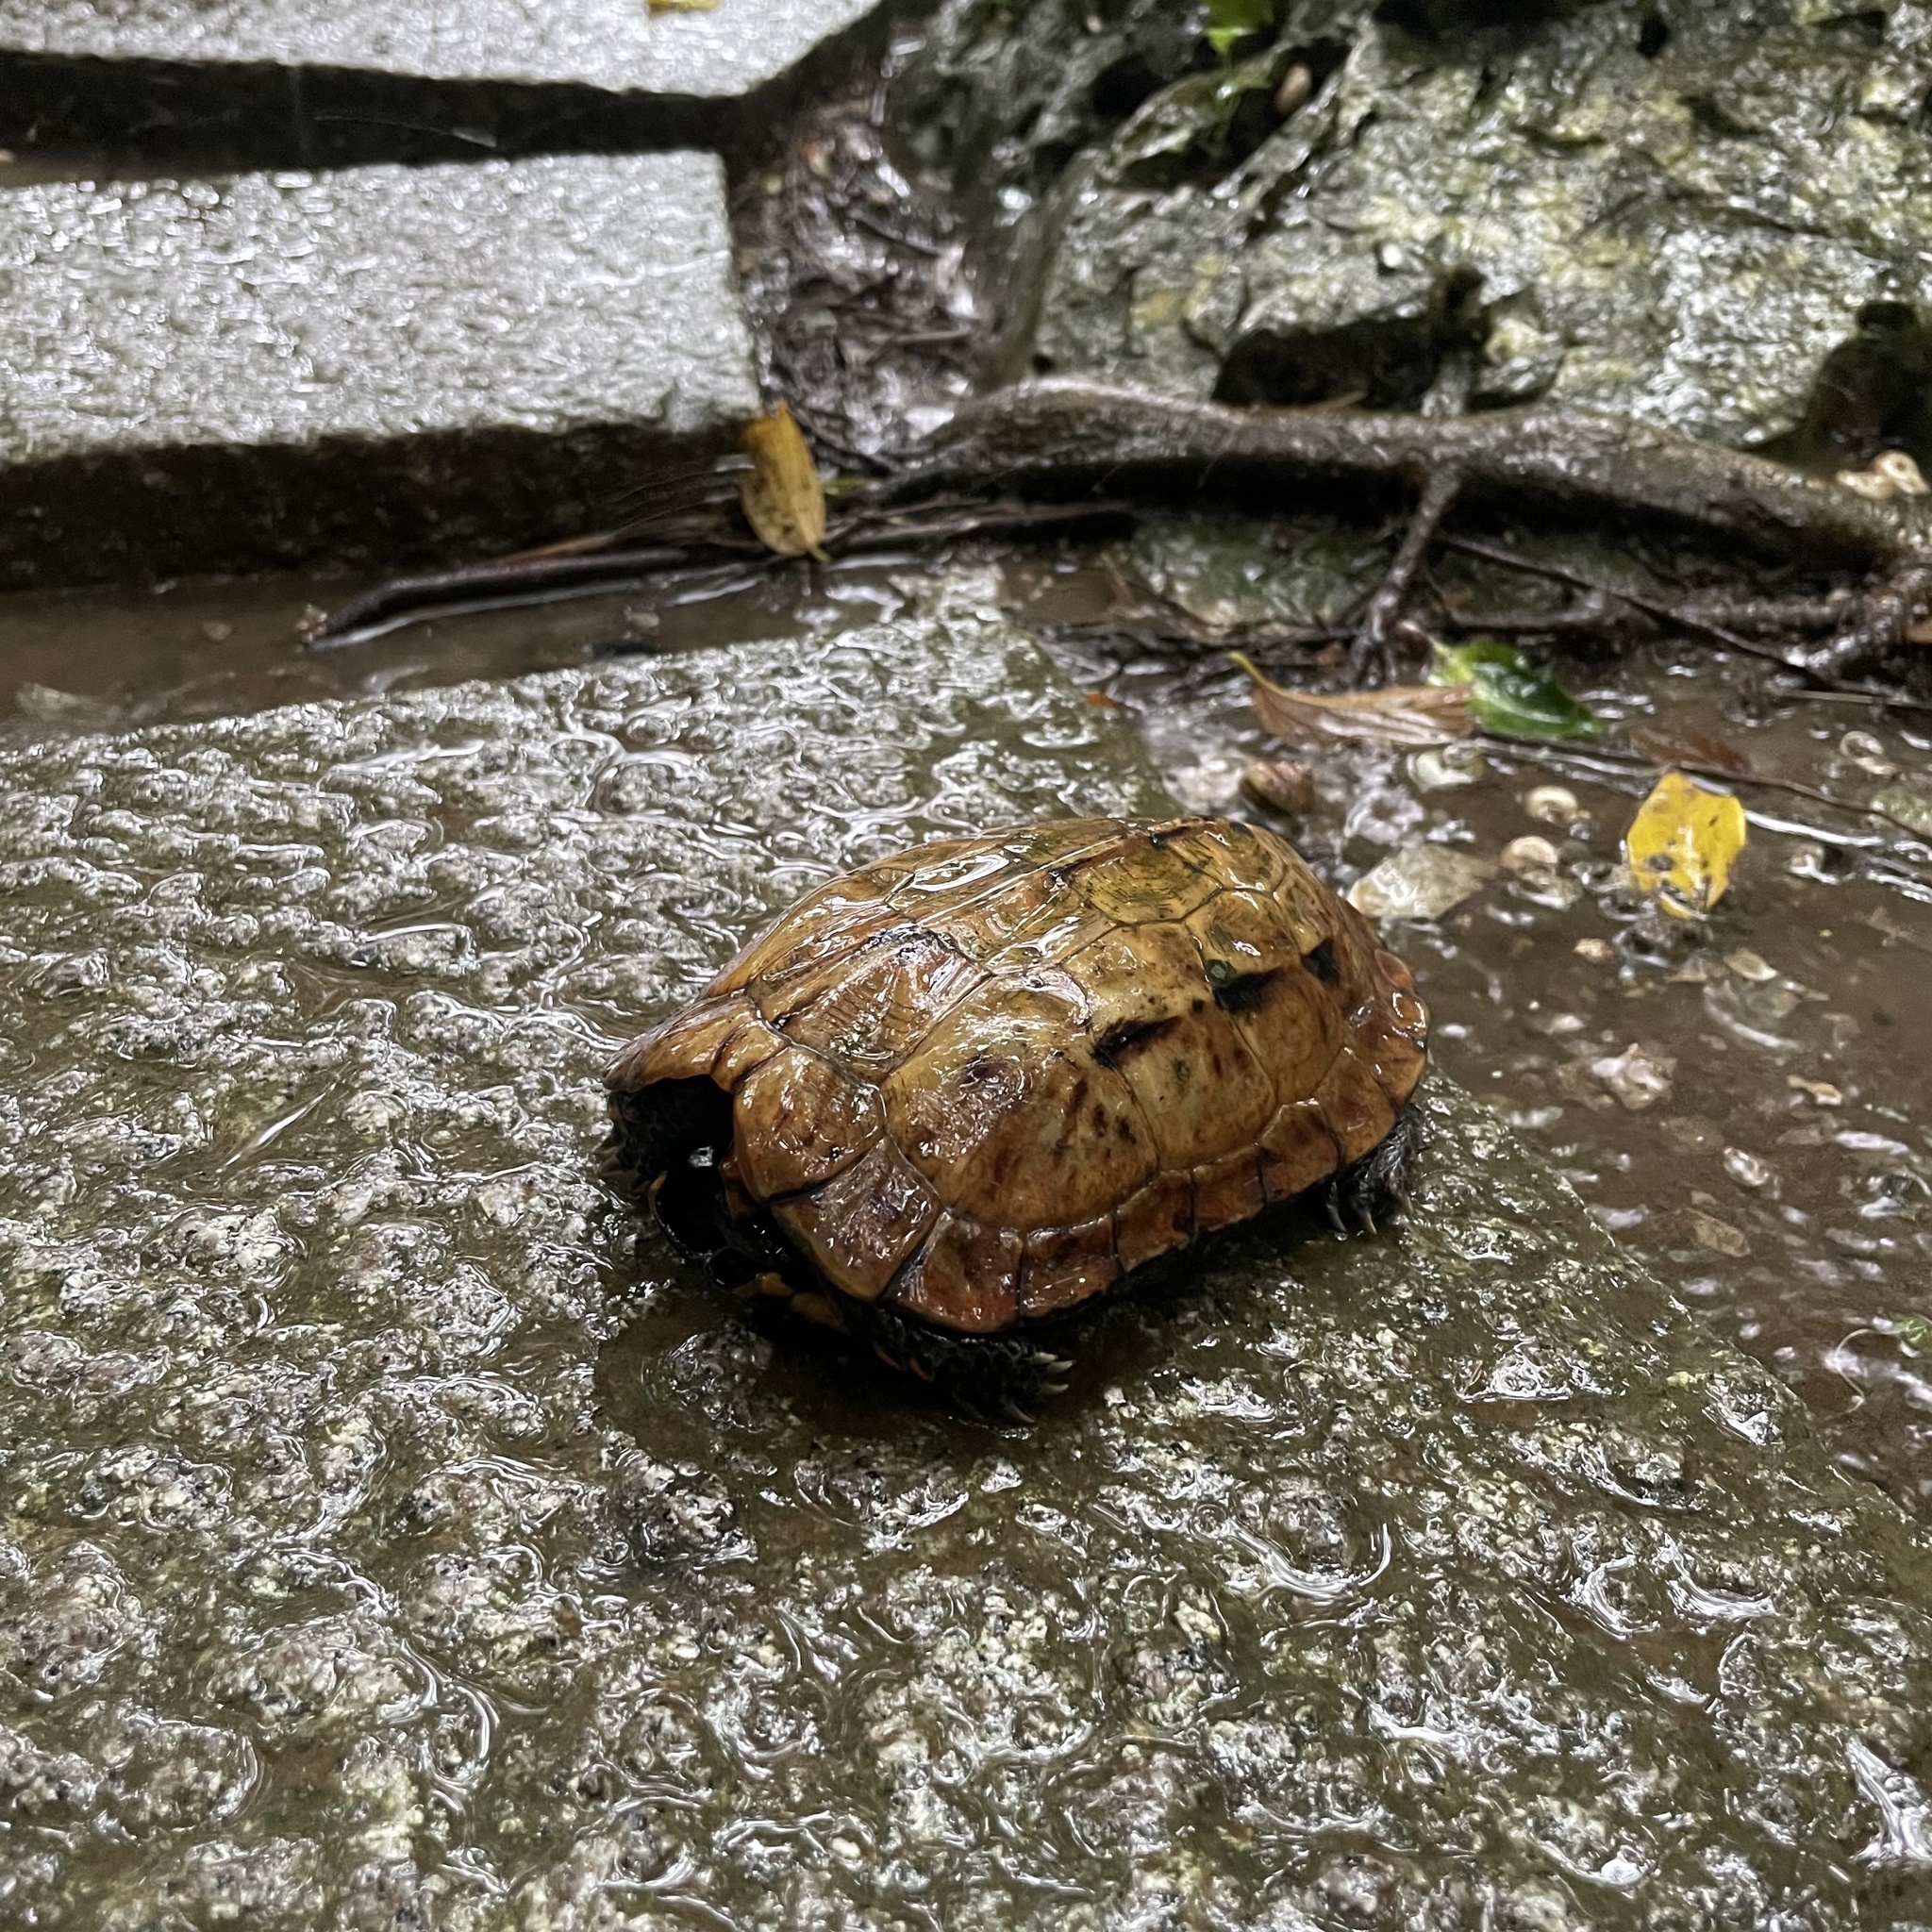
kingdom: Animalia
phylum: Chordata
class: Testudines
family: Geoemydidae
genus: Geoemyda
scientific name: Geoemyda japonica
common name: Okinawa black-breasted leaf turtle
